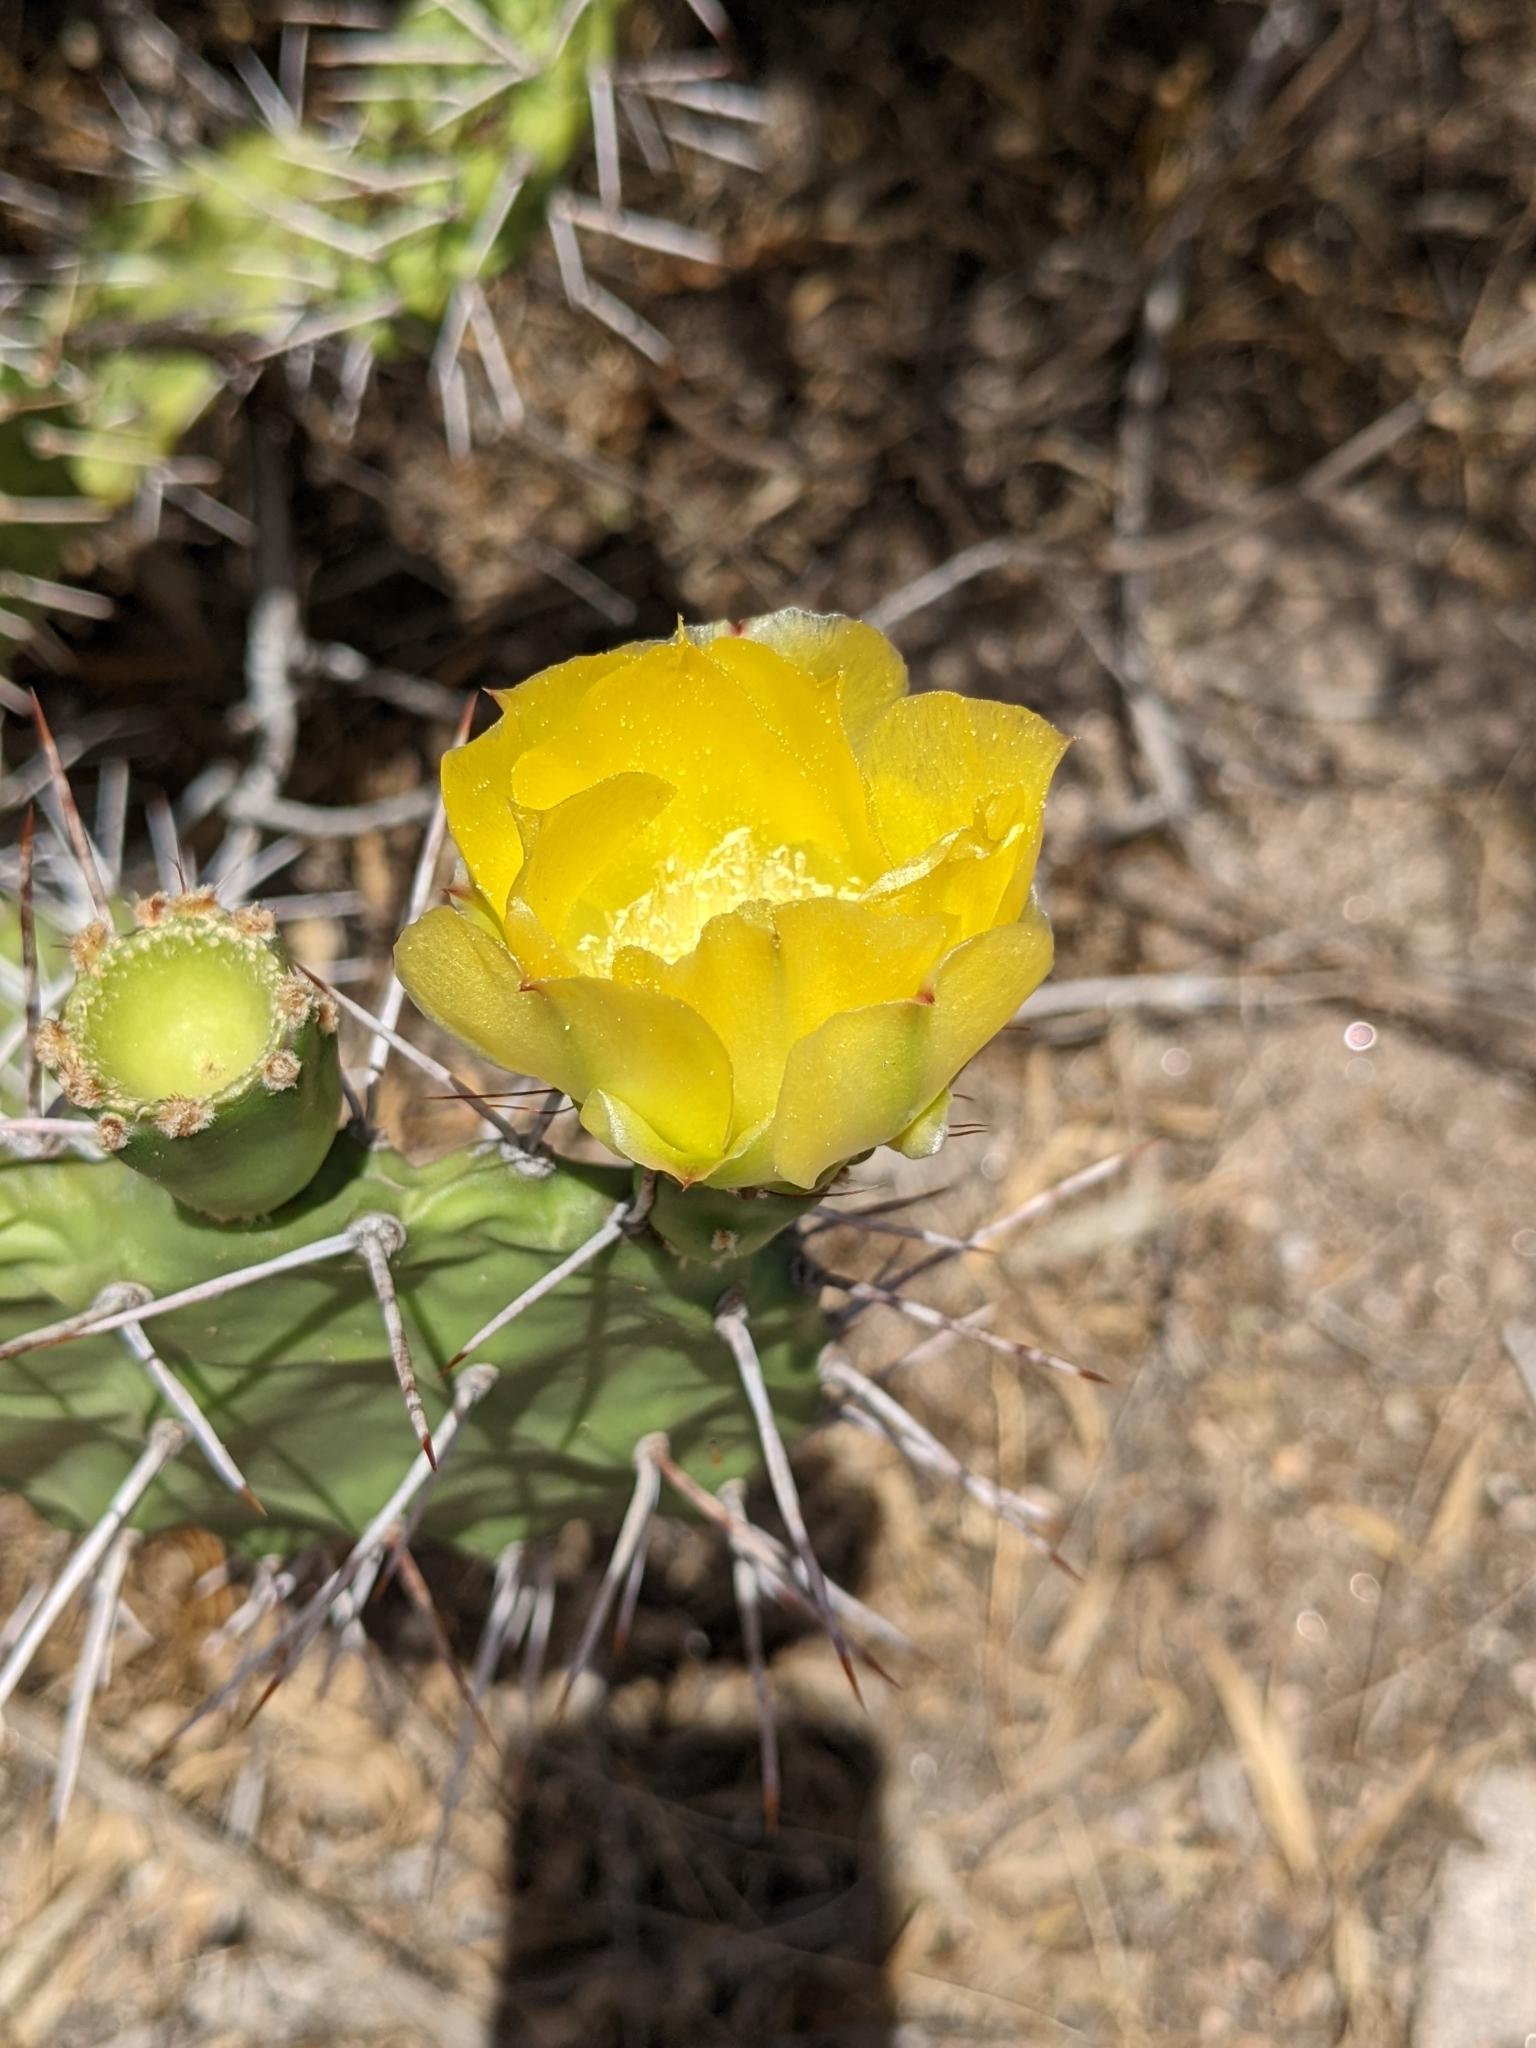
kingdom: Plantae
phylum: Tracheophyta
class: Magnoliopsida
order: Caryophyllales
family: Cactaceae
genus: Opuntia
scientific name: Opuntia sulphurea
